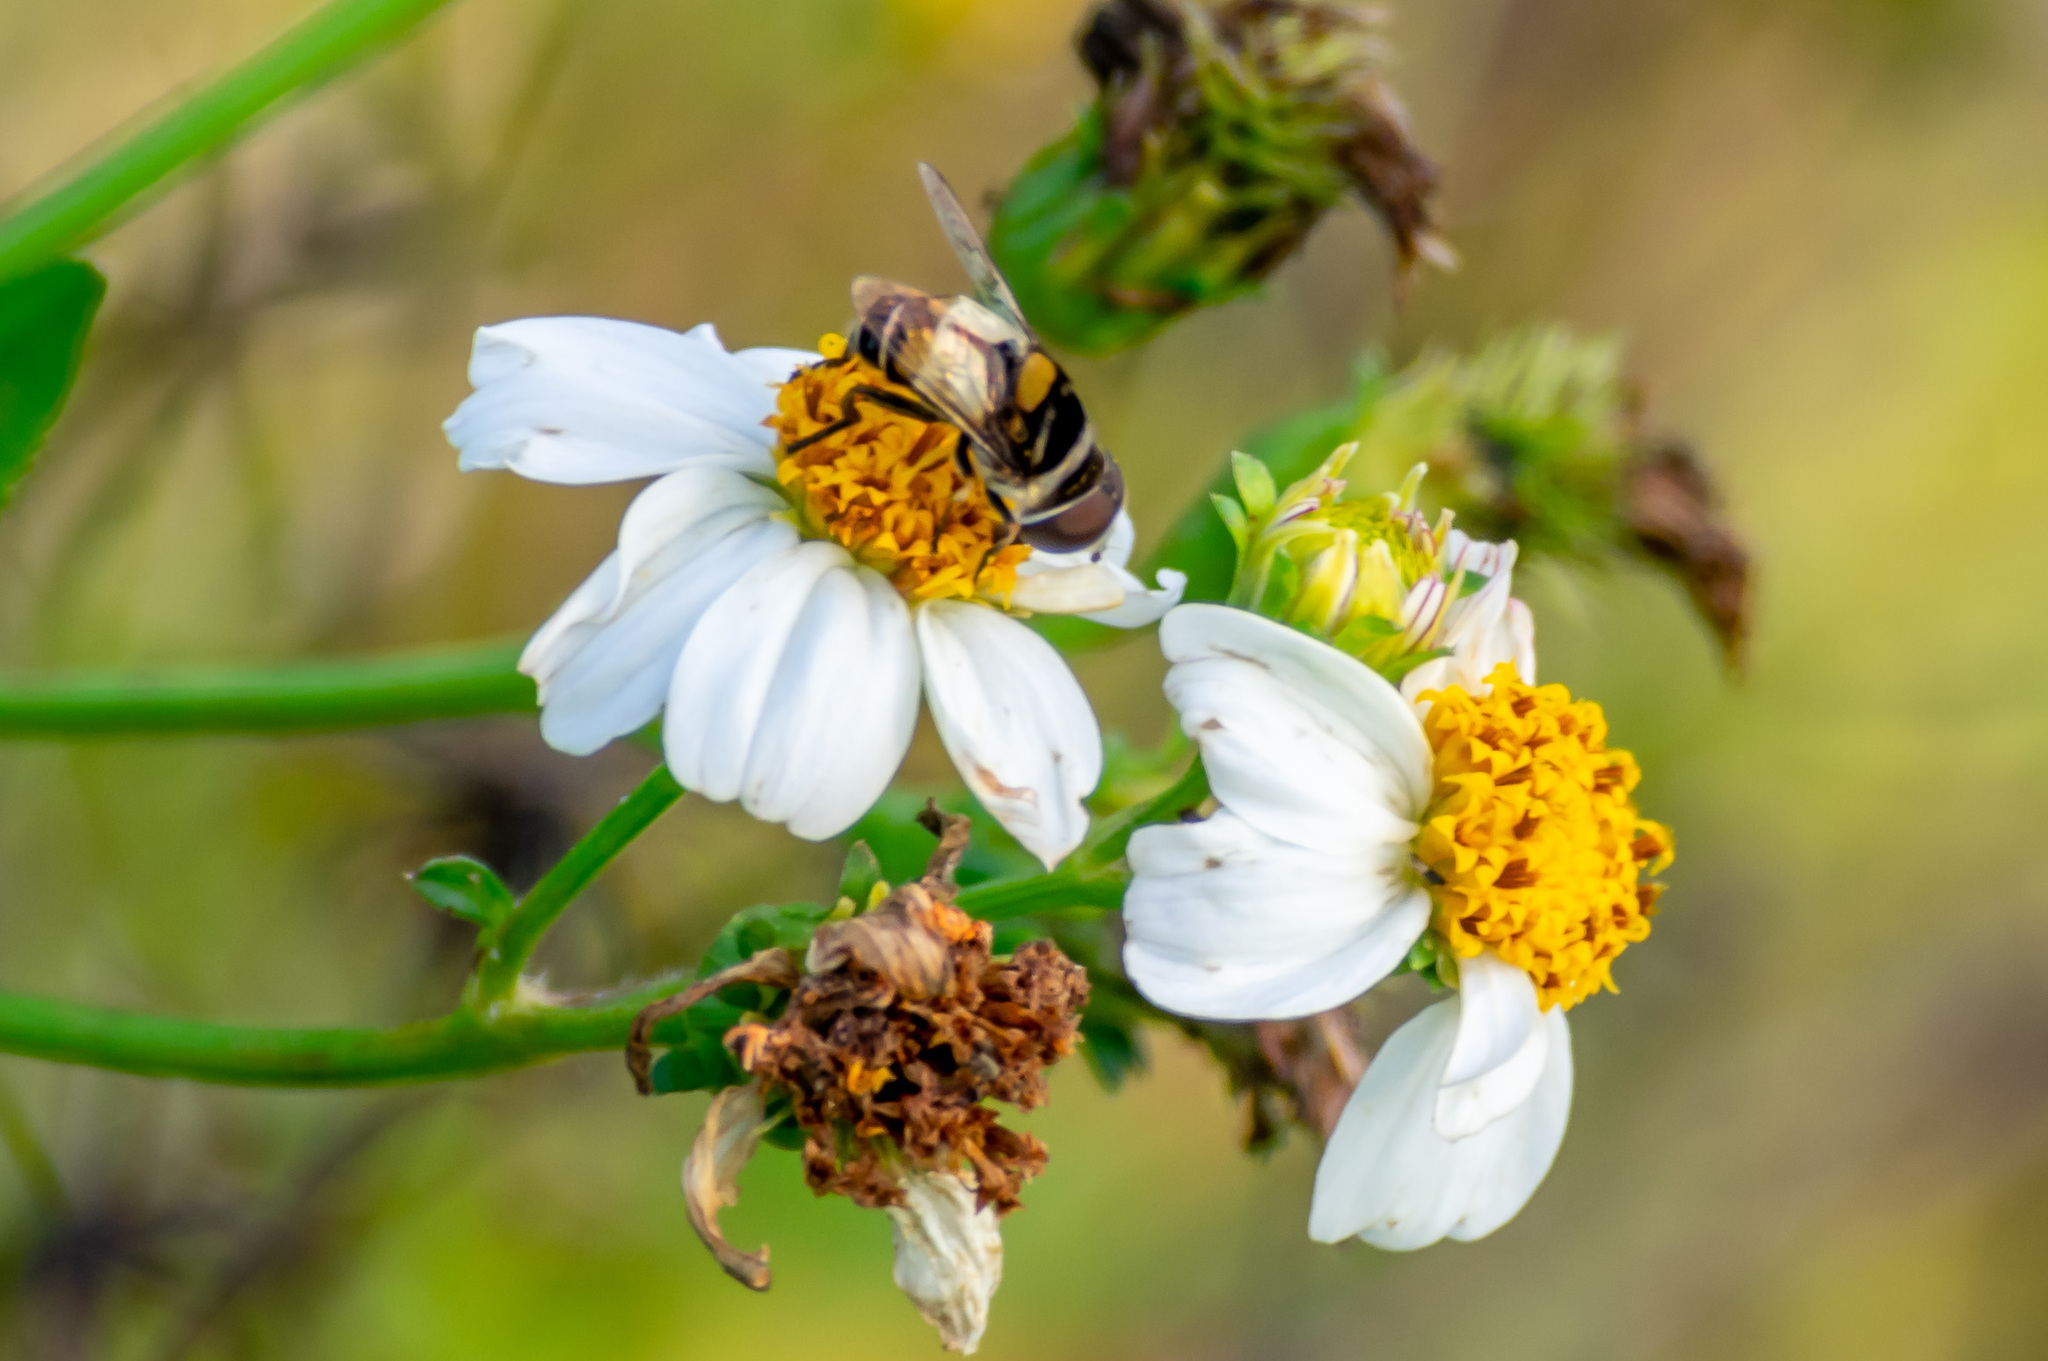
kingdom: Animalia
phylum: Arthropoda
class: Insecta
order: Diptera
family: Syrphidae
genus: Palpada
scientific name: Palpada albifrons
